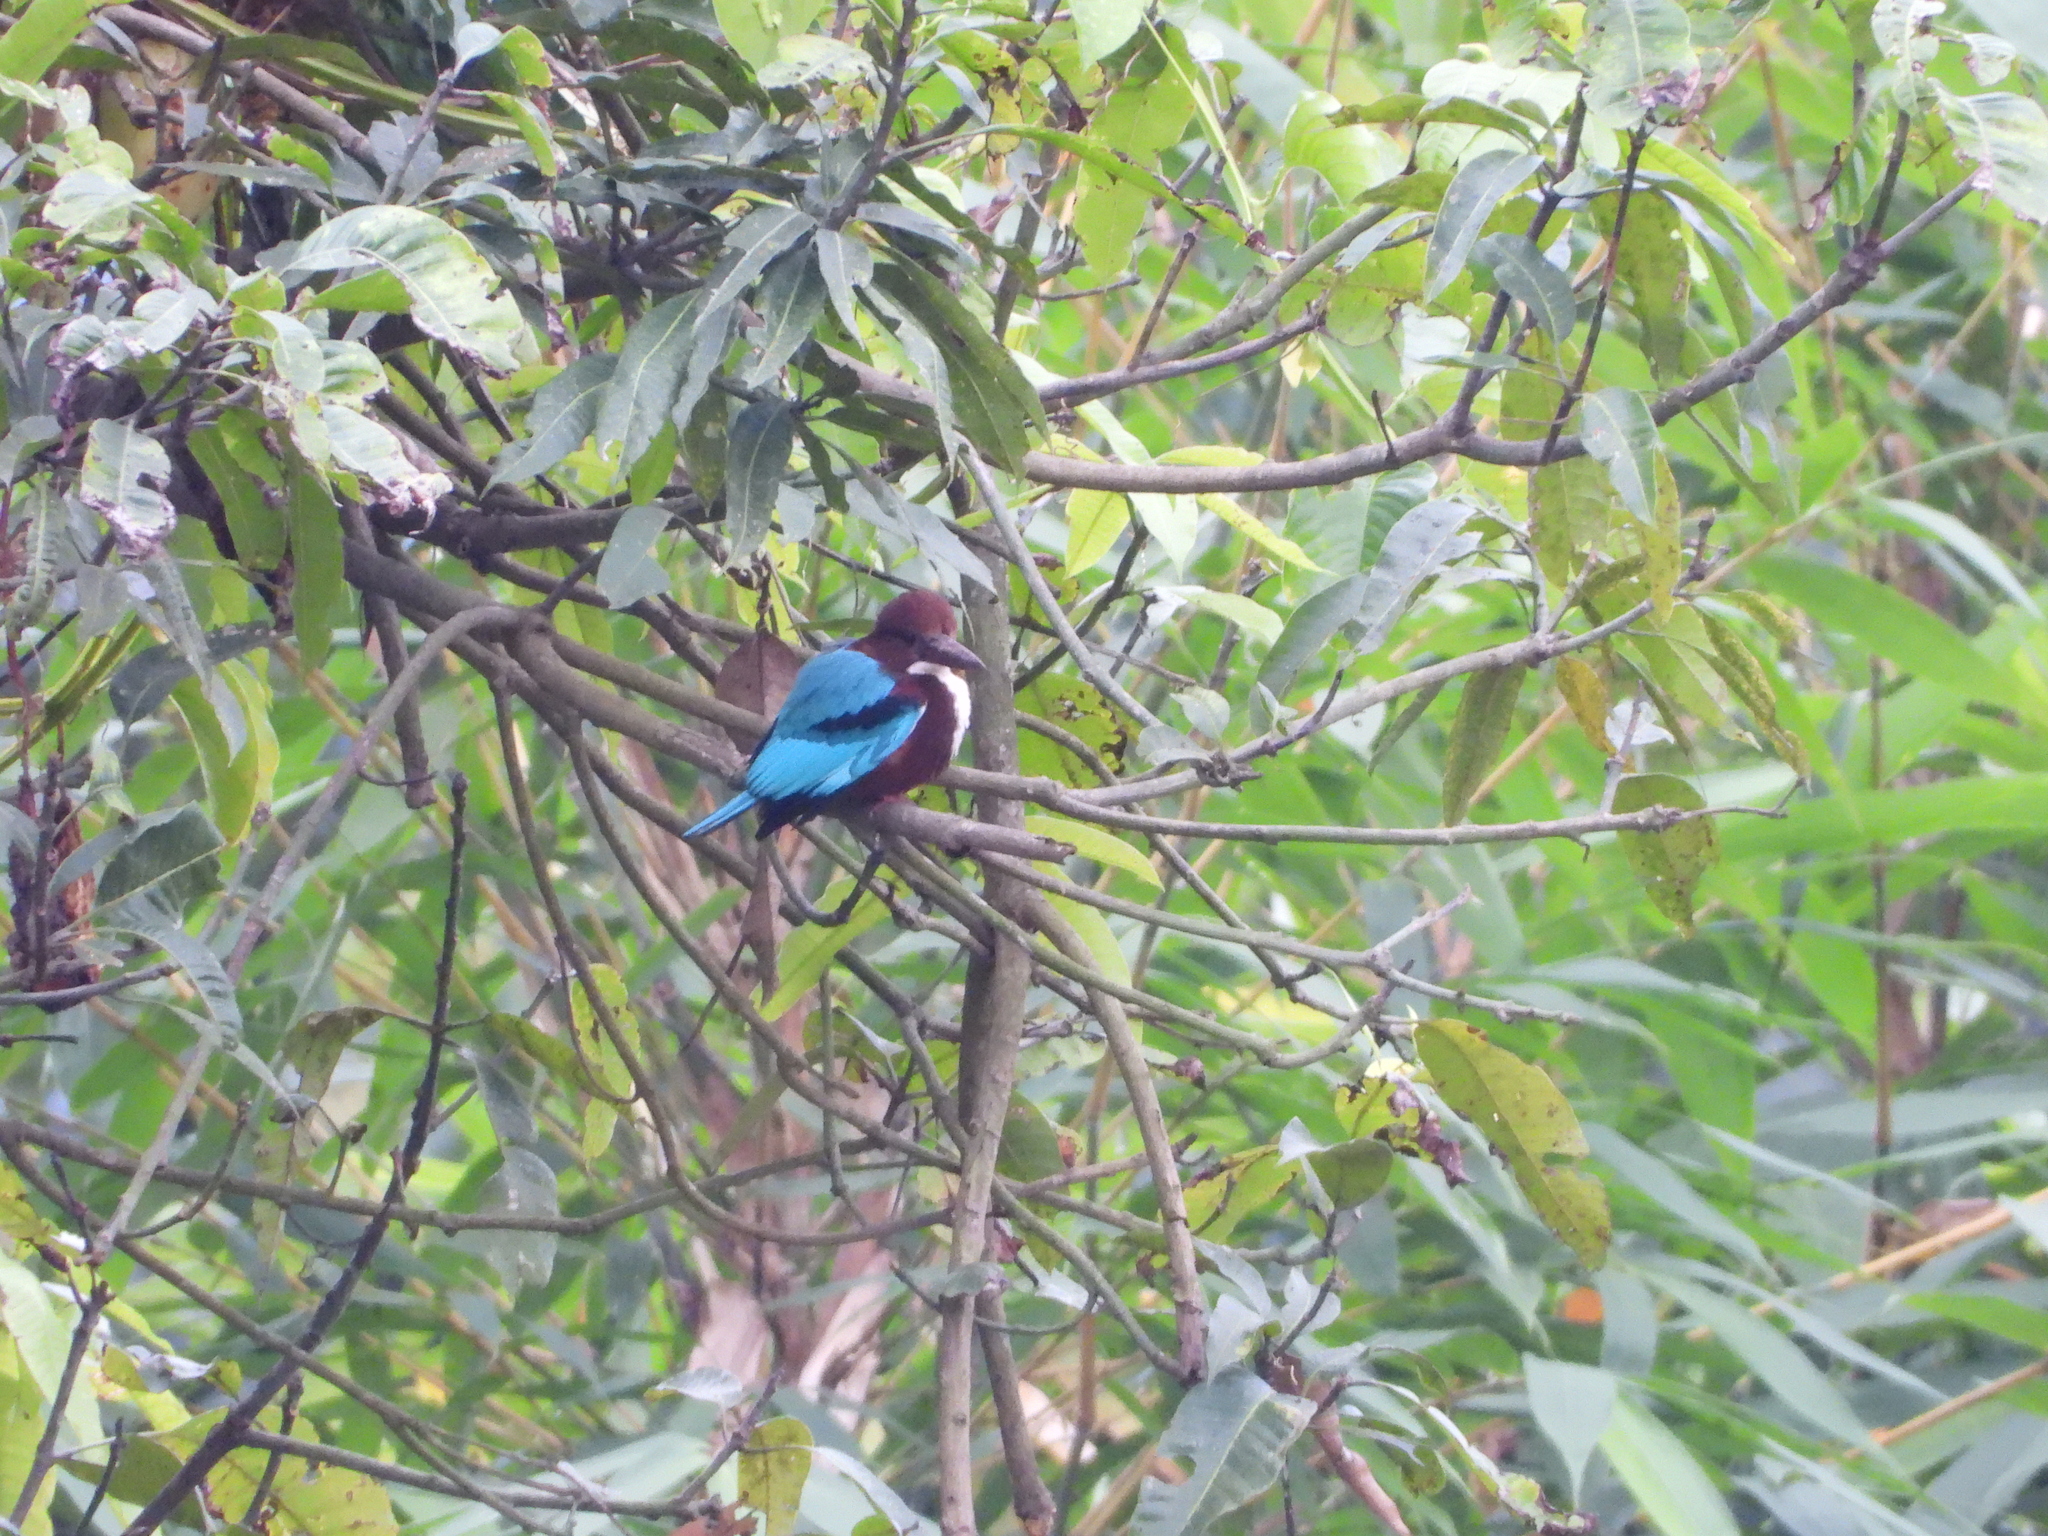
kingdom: Animalia
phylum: Chordata
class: Aves
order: Coraciiformes
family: Alcedinidae
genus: Halcyon
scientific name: Halcyon smyrnensis
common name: White-throated kingfisher
